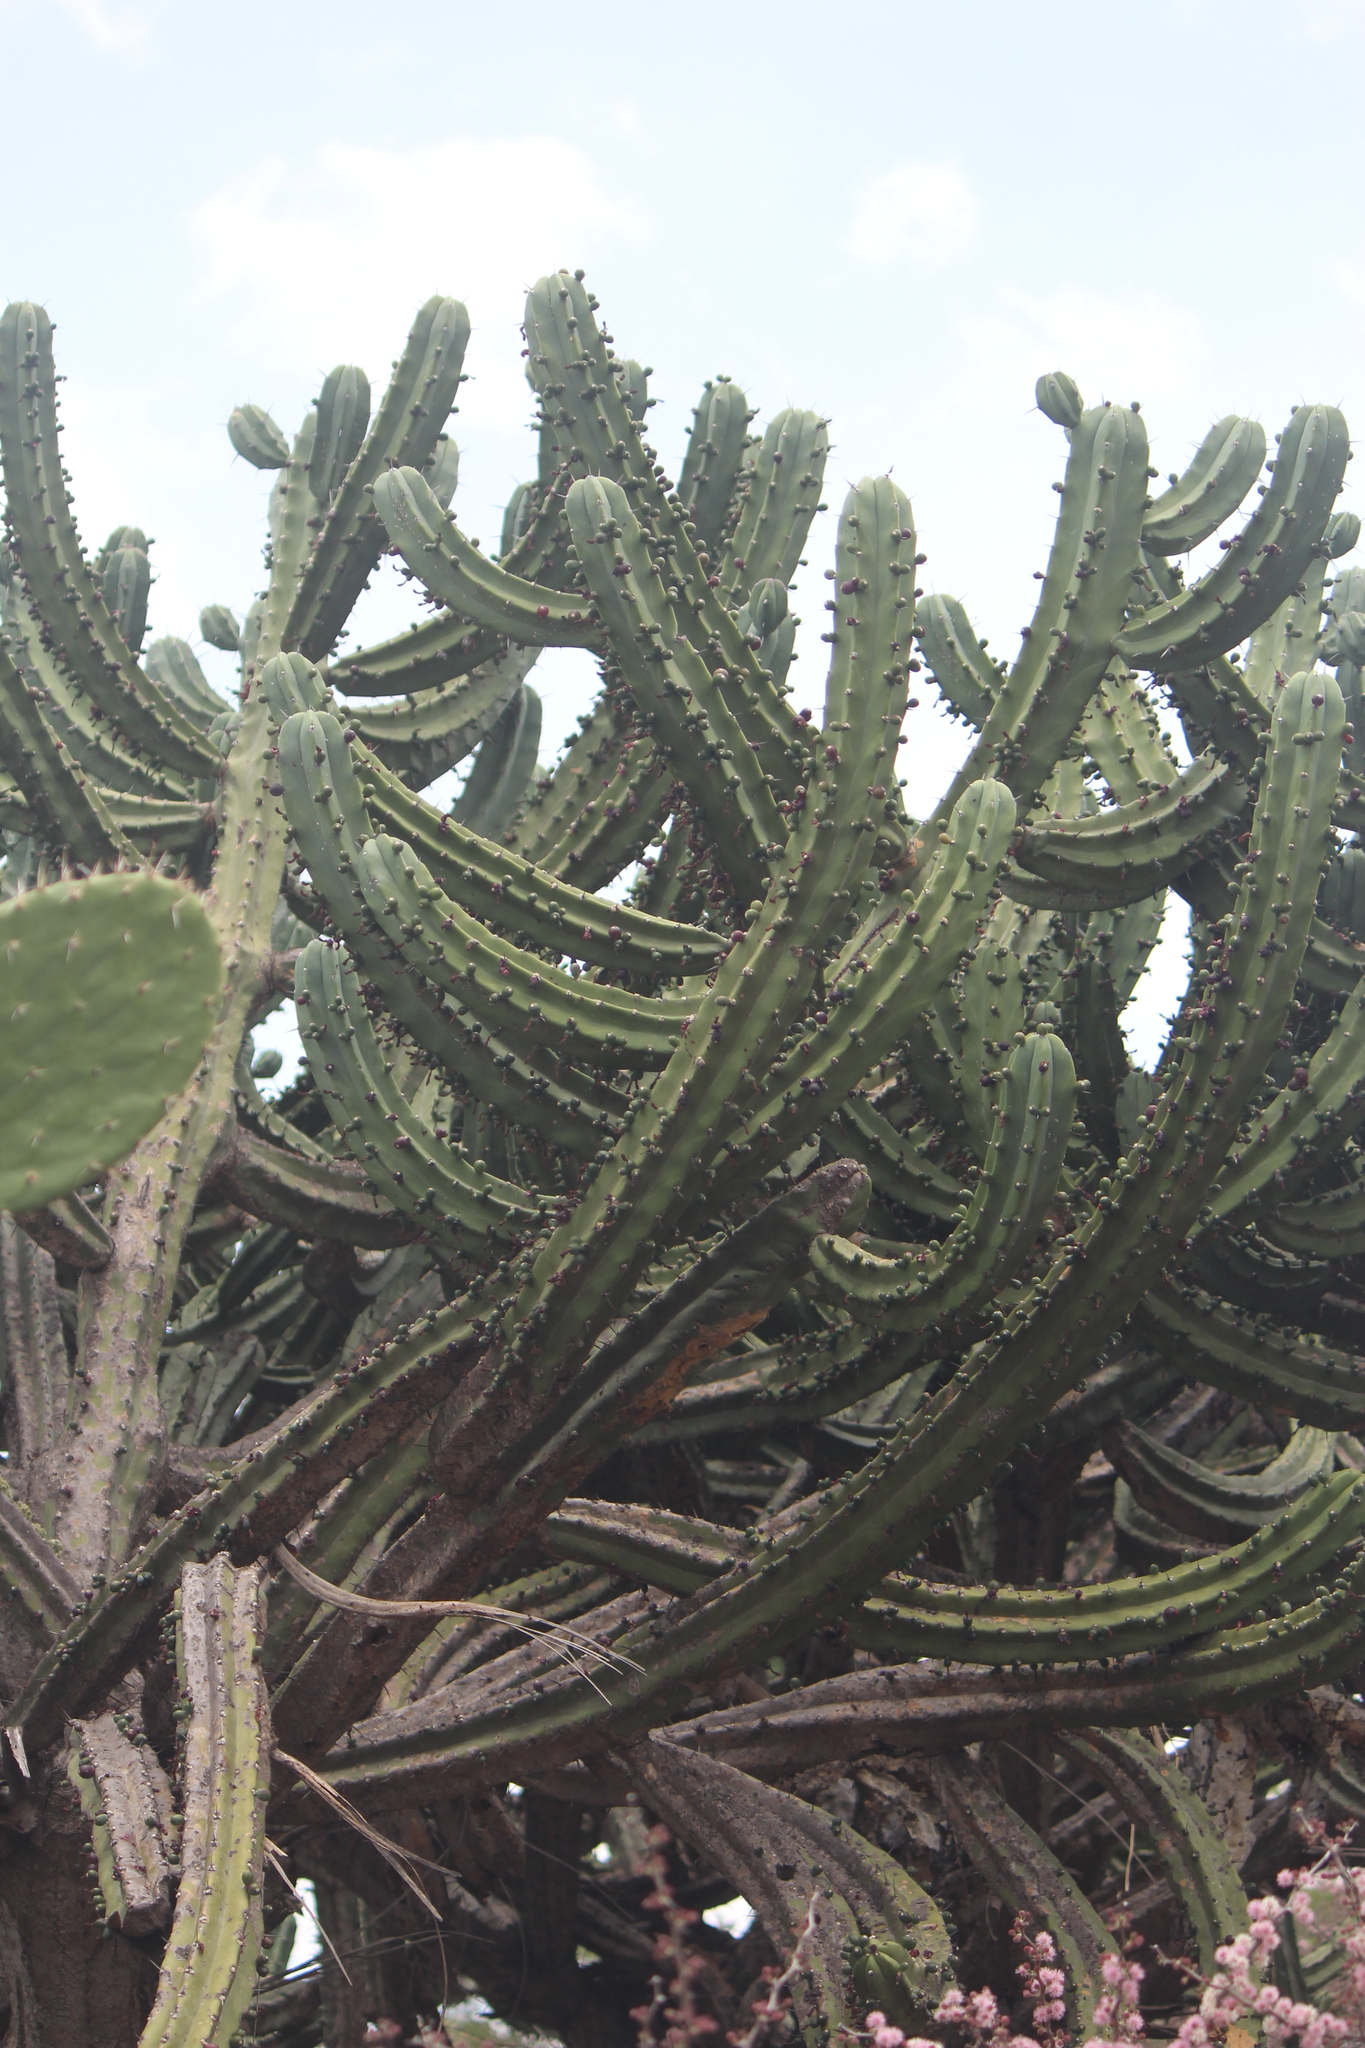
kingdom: Plantae
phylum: Tracheophyta
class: Magnoliopsida
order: Caryophyllales
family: Cactaceae
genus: Myrtillocactus
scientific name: Myrtillocactus geometrizans
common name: Bilberry cactus
